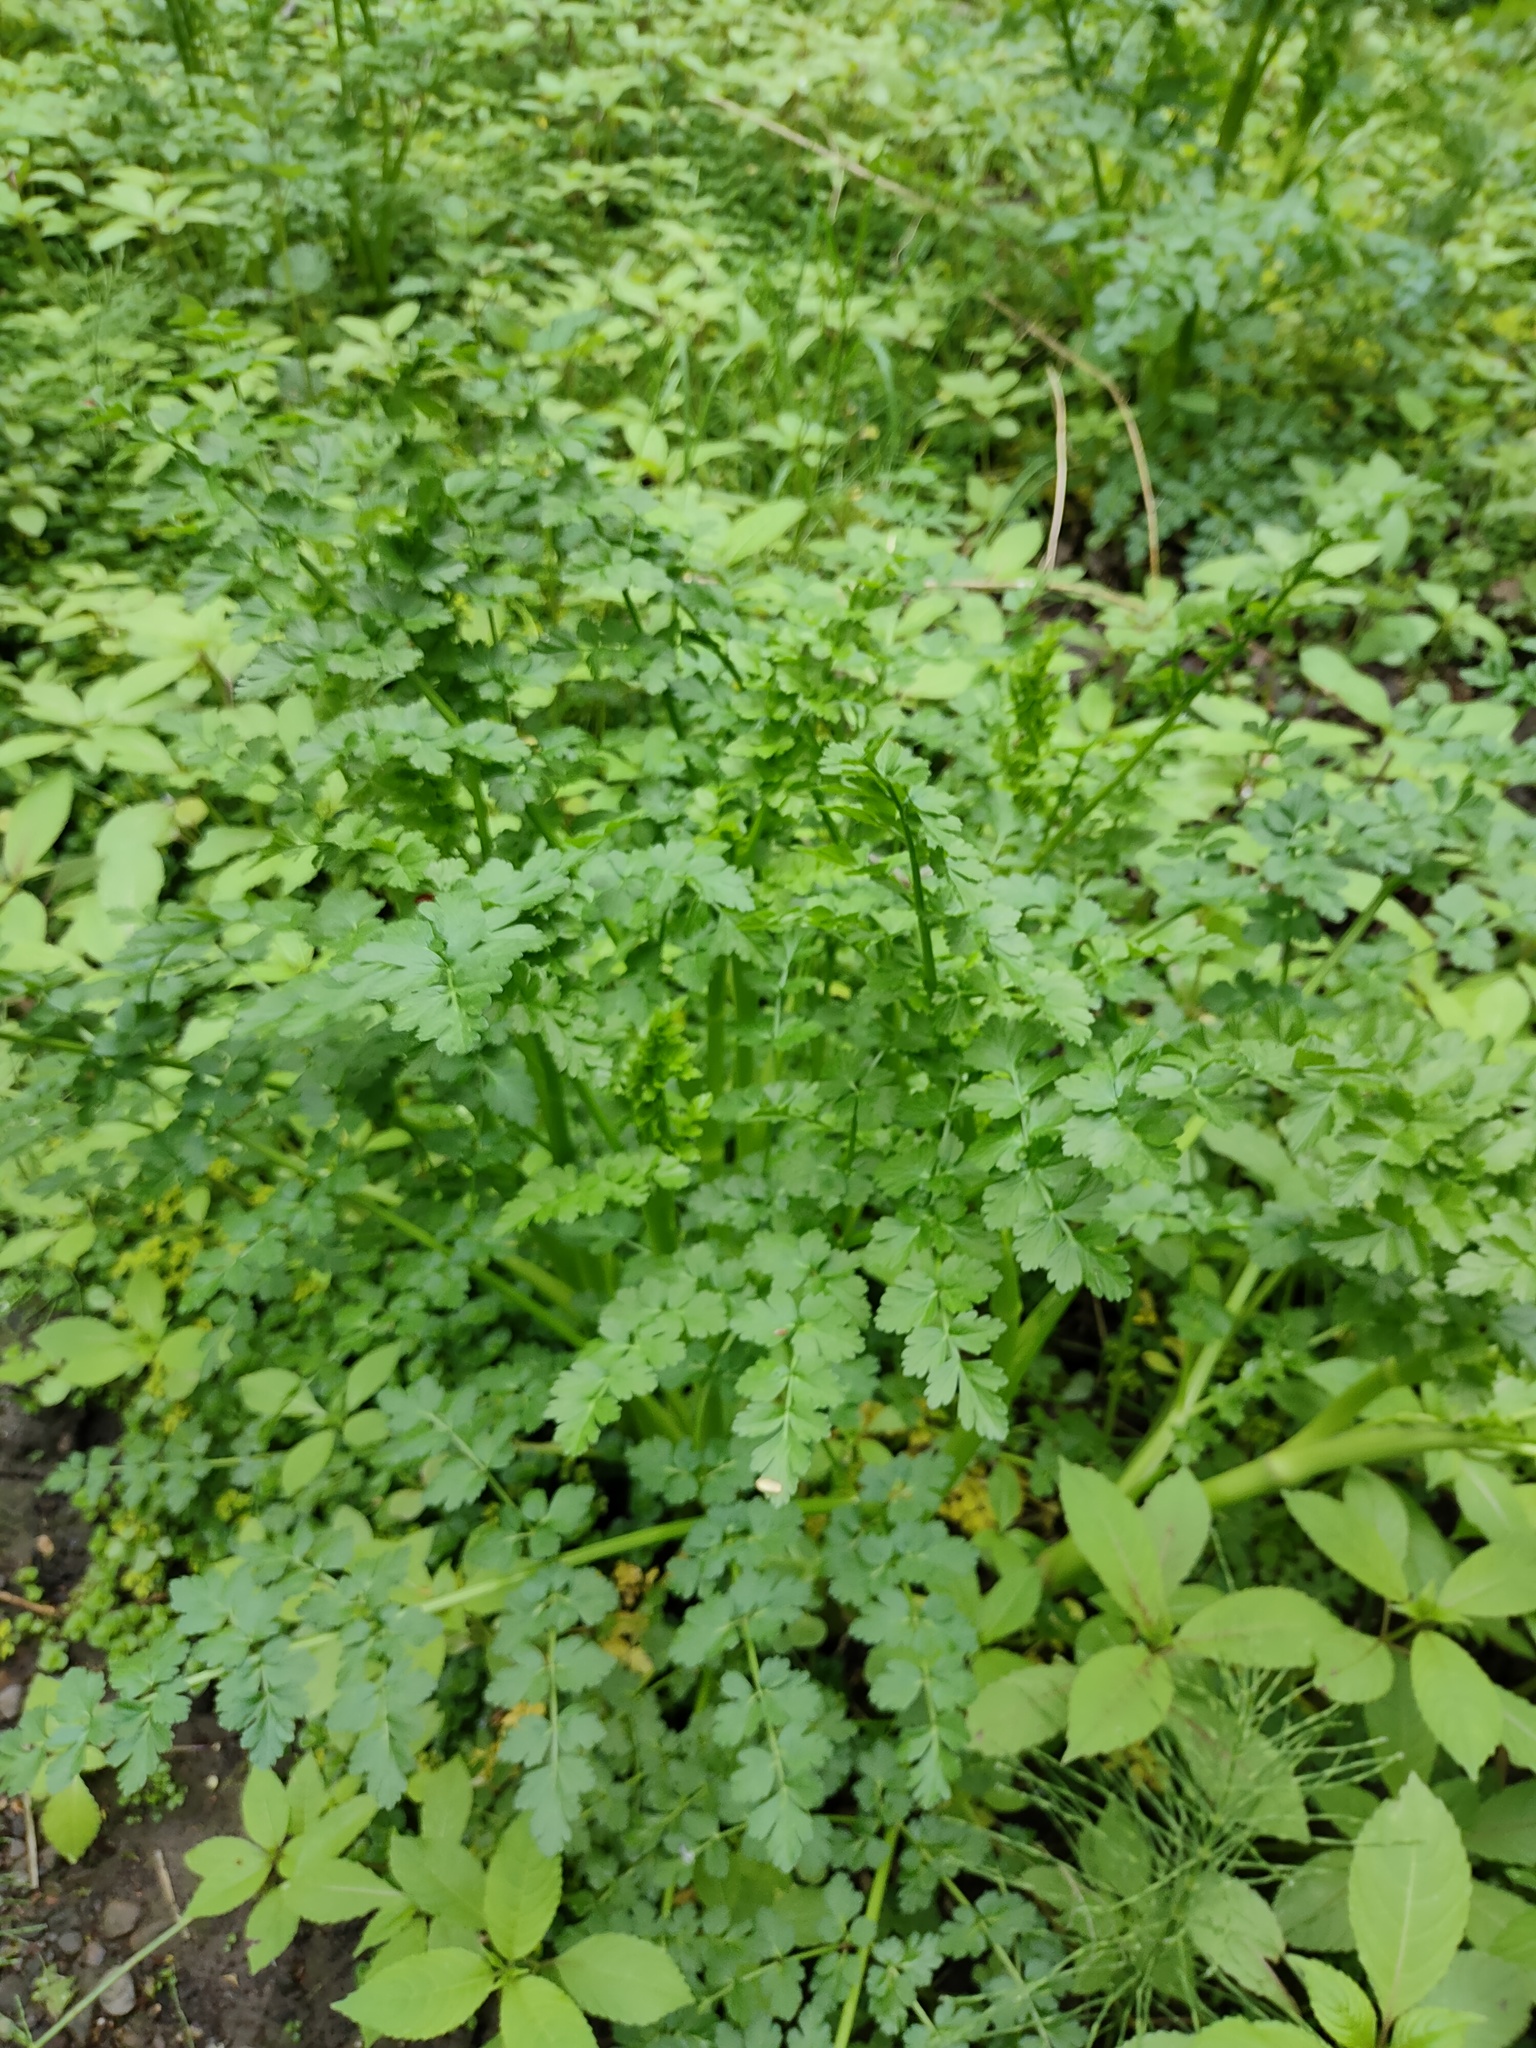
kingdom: Plantae
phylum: Tracheophyta
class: Magnoliopsida
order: Apiales
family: Apiaceae
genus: Oenanthe
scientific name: Oenanthe crocata
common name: Hemlock water-dropwort
